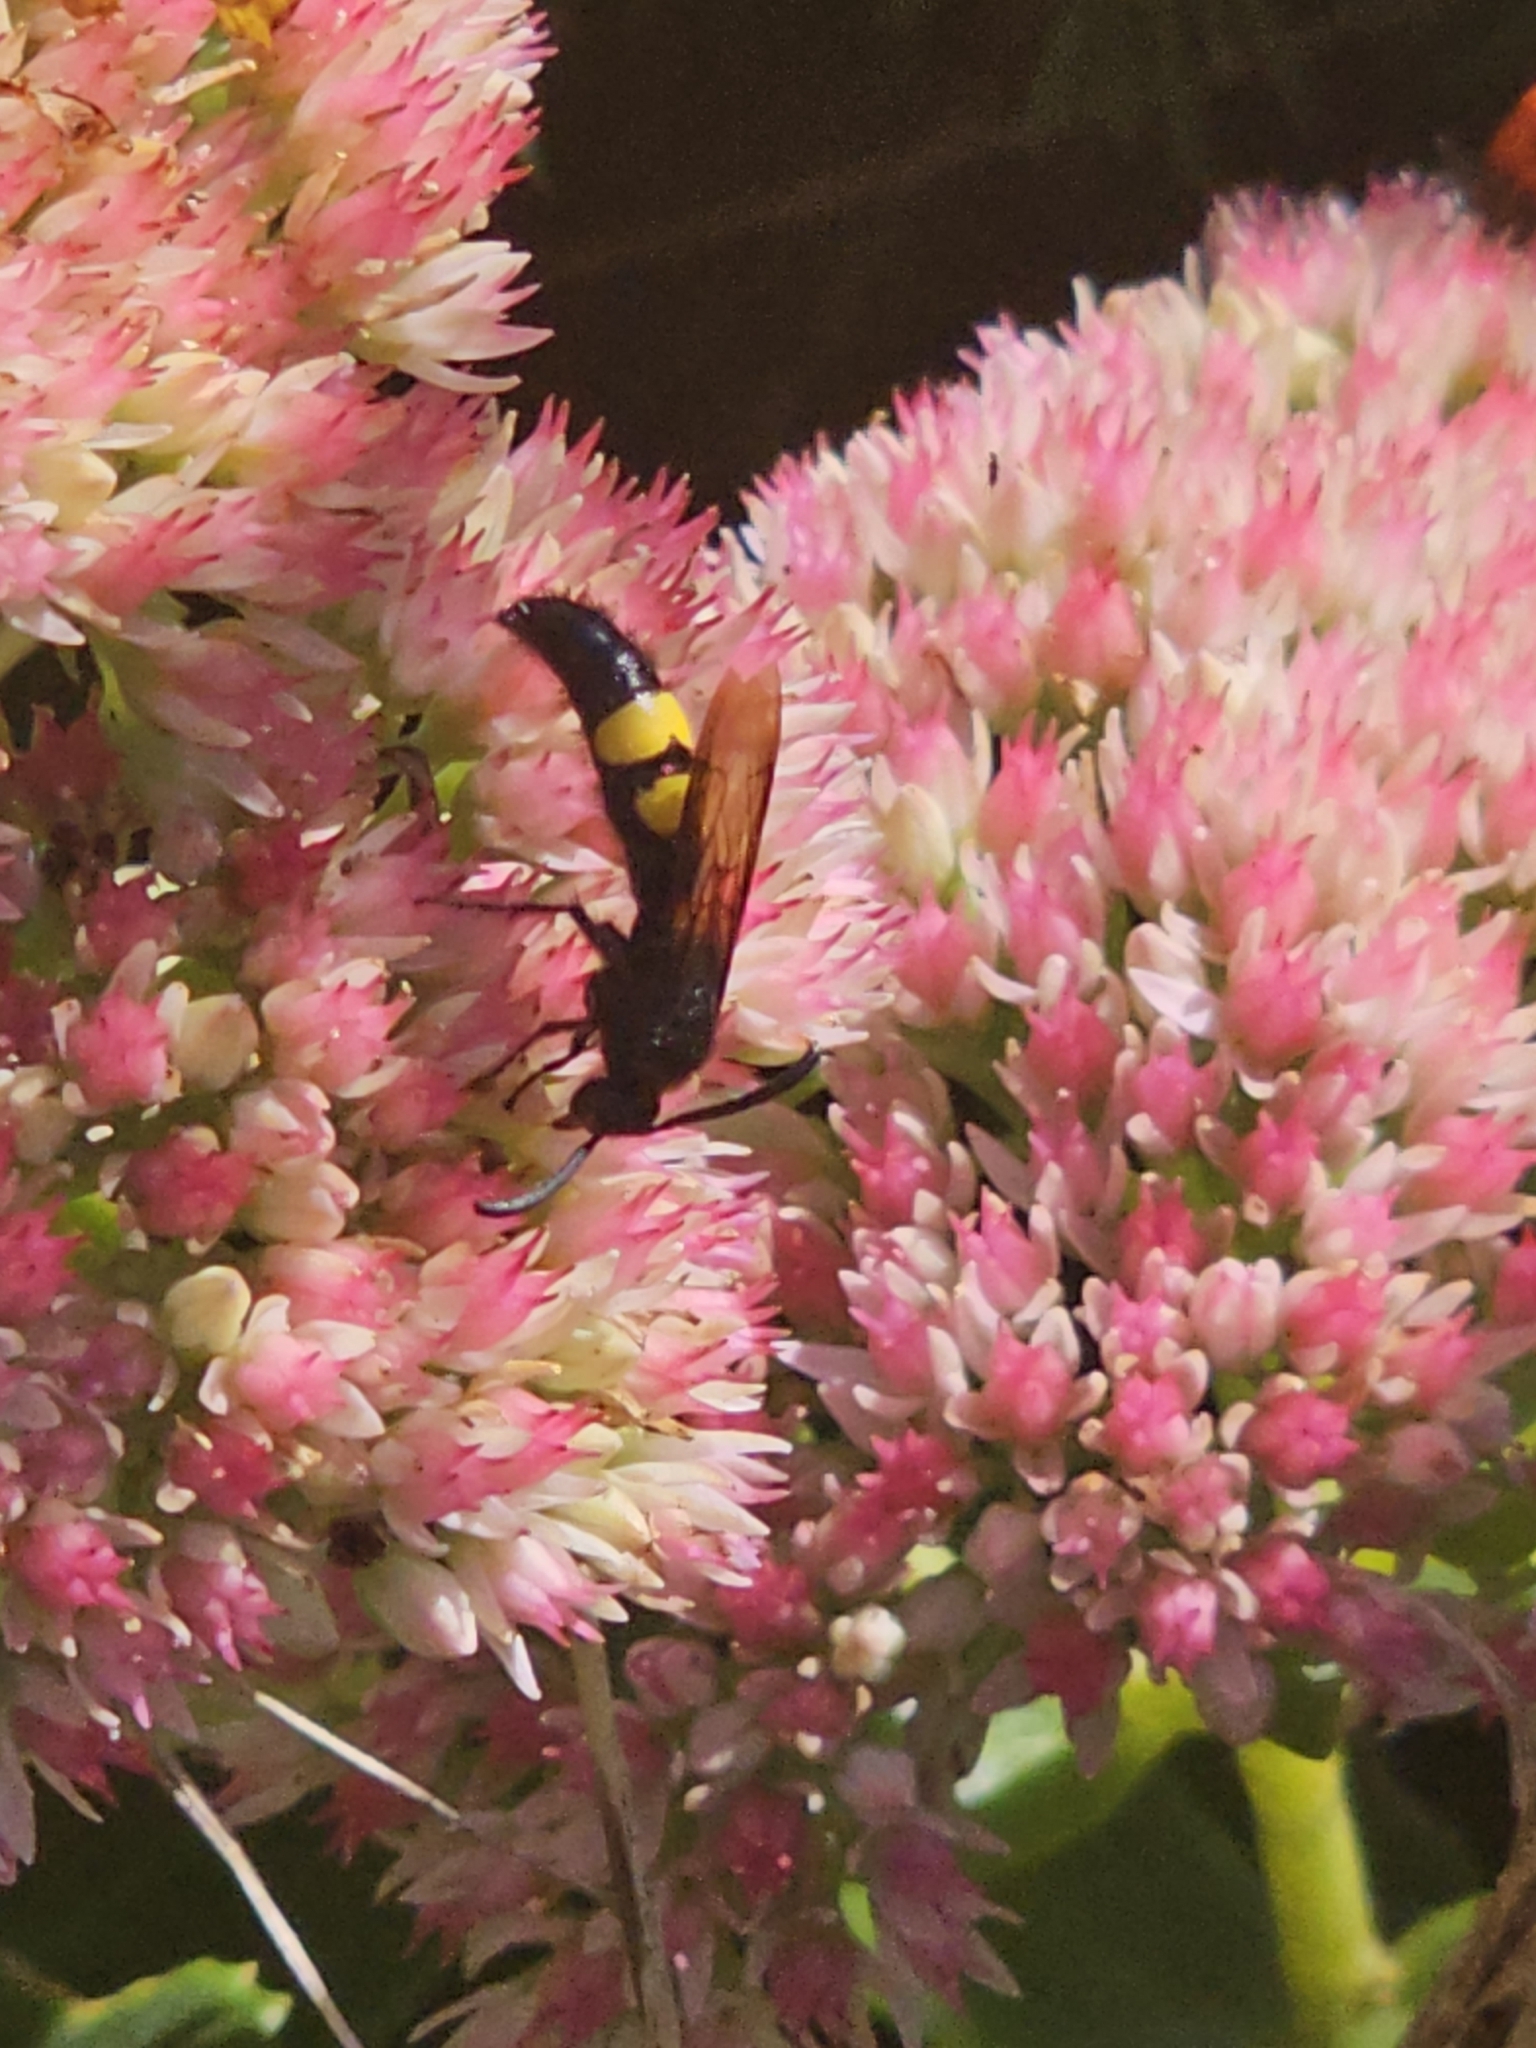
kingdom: Animalia
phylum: Arthropoda
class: Insecta
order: Hymenoptera
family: Scoliidae
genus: Scolia
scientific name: Scolia hirta
